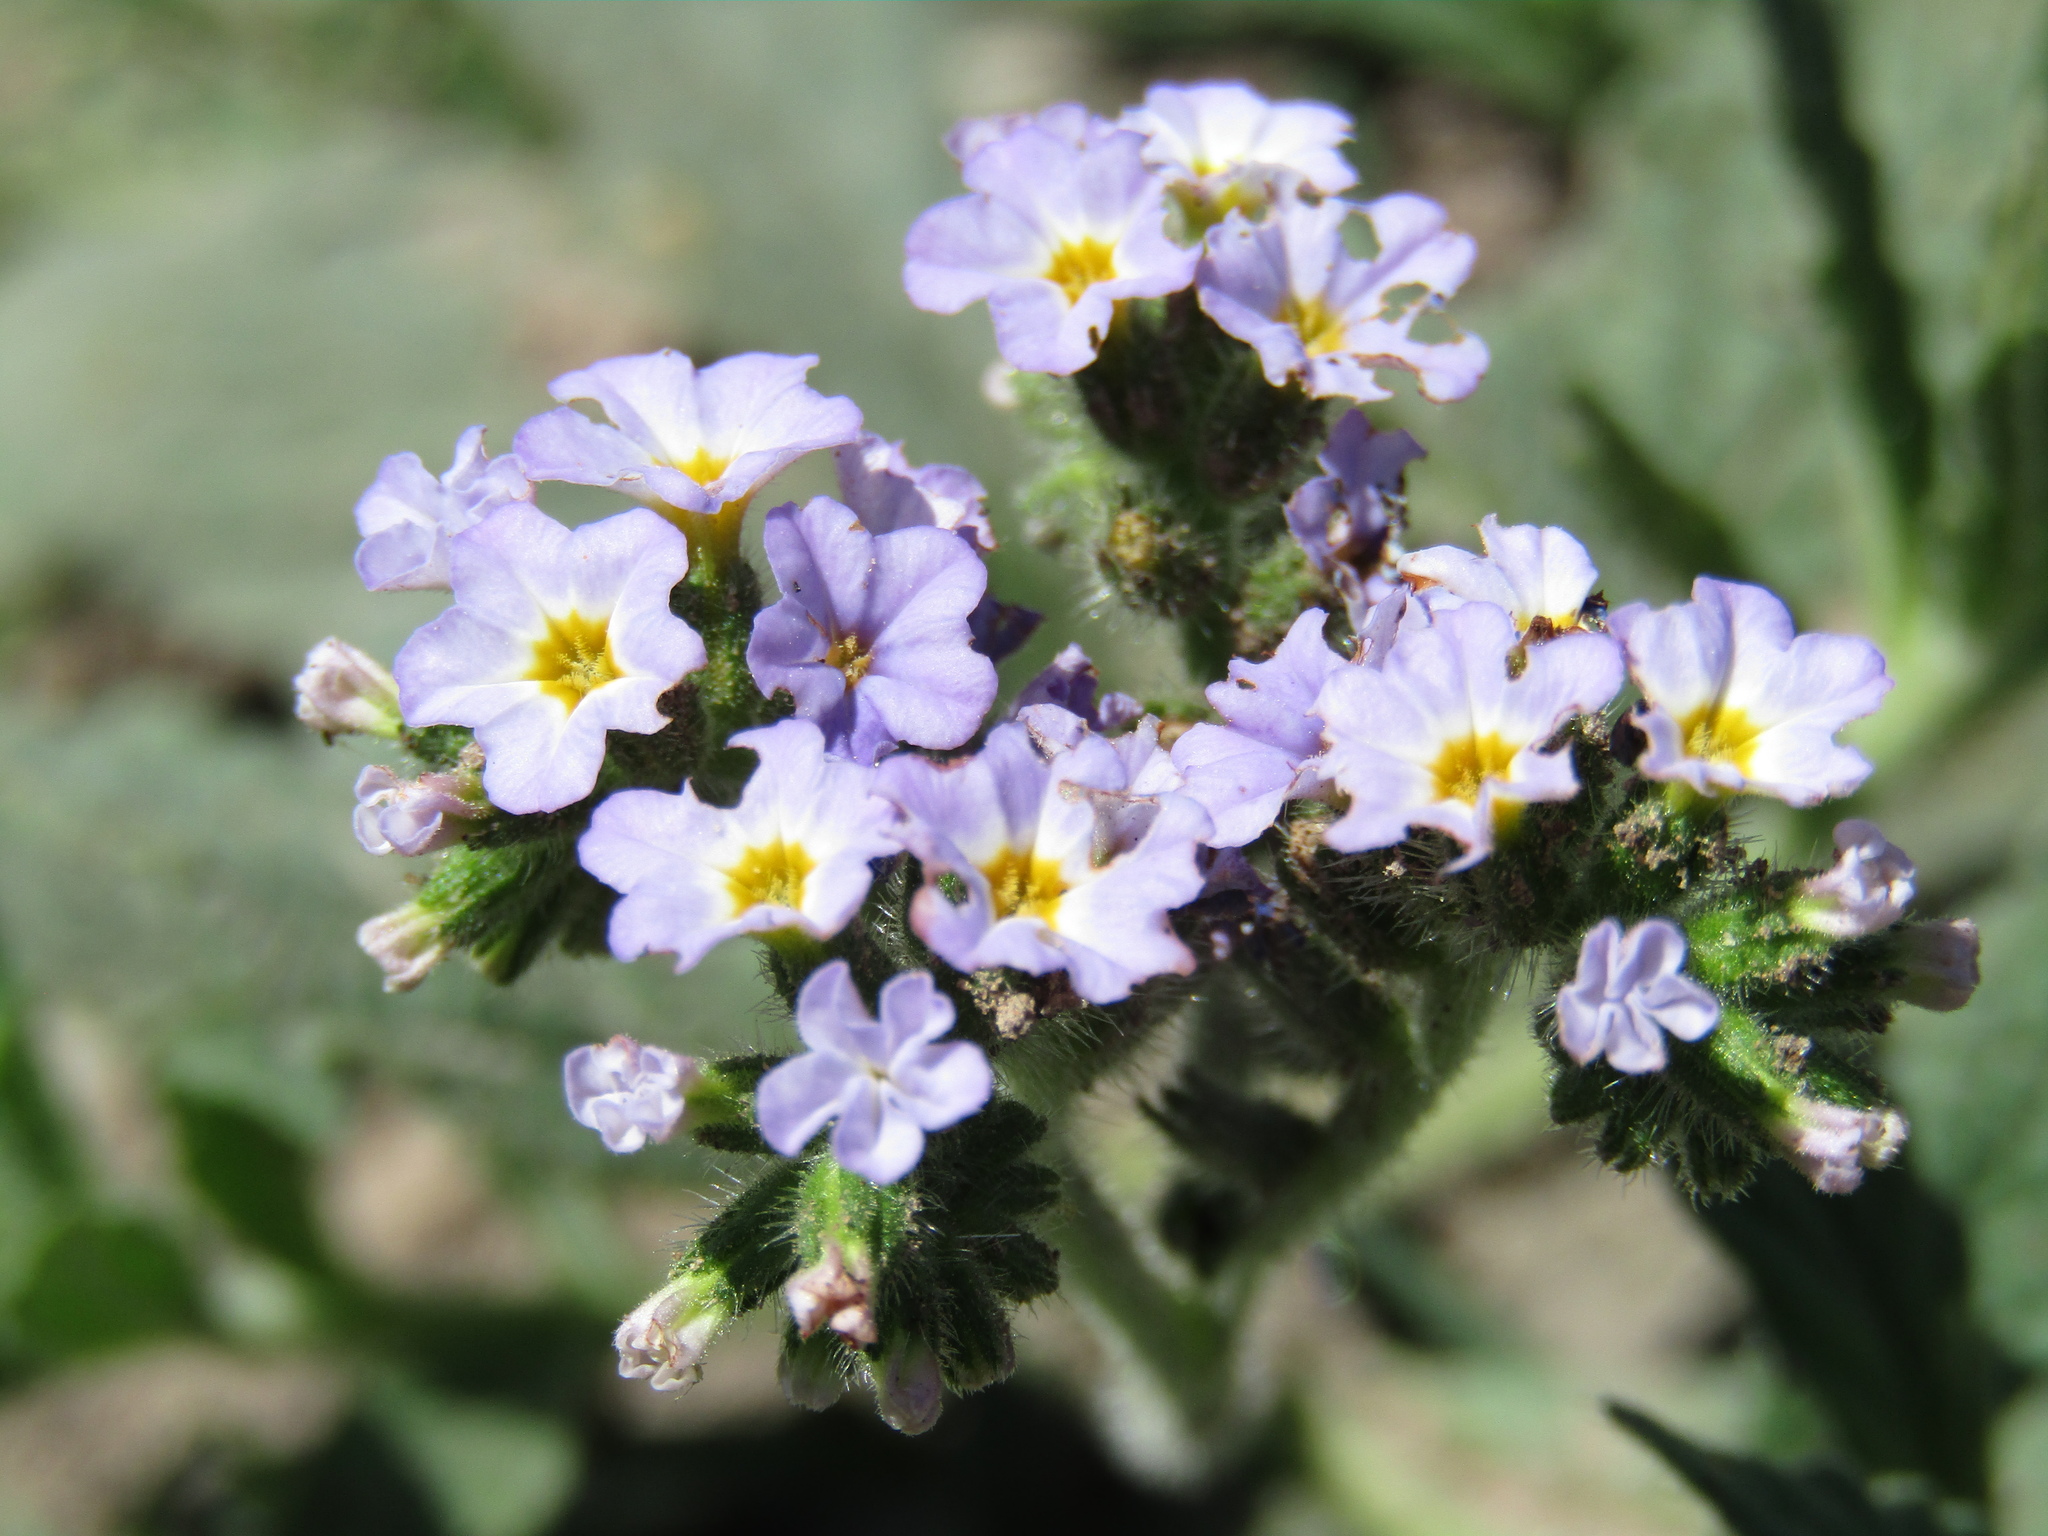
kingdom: Plantae
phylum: Tracheophyta
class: Magnoliopsida
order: Boraginales
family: Heliotropiaceae
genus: Heliotropium
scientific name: Heliotropium amplexicaule
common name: Clasping heliotrope
